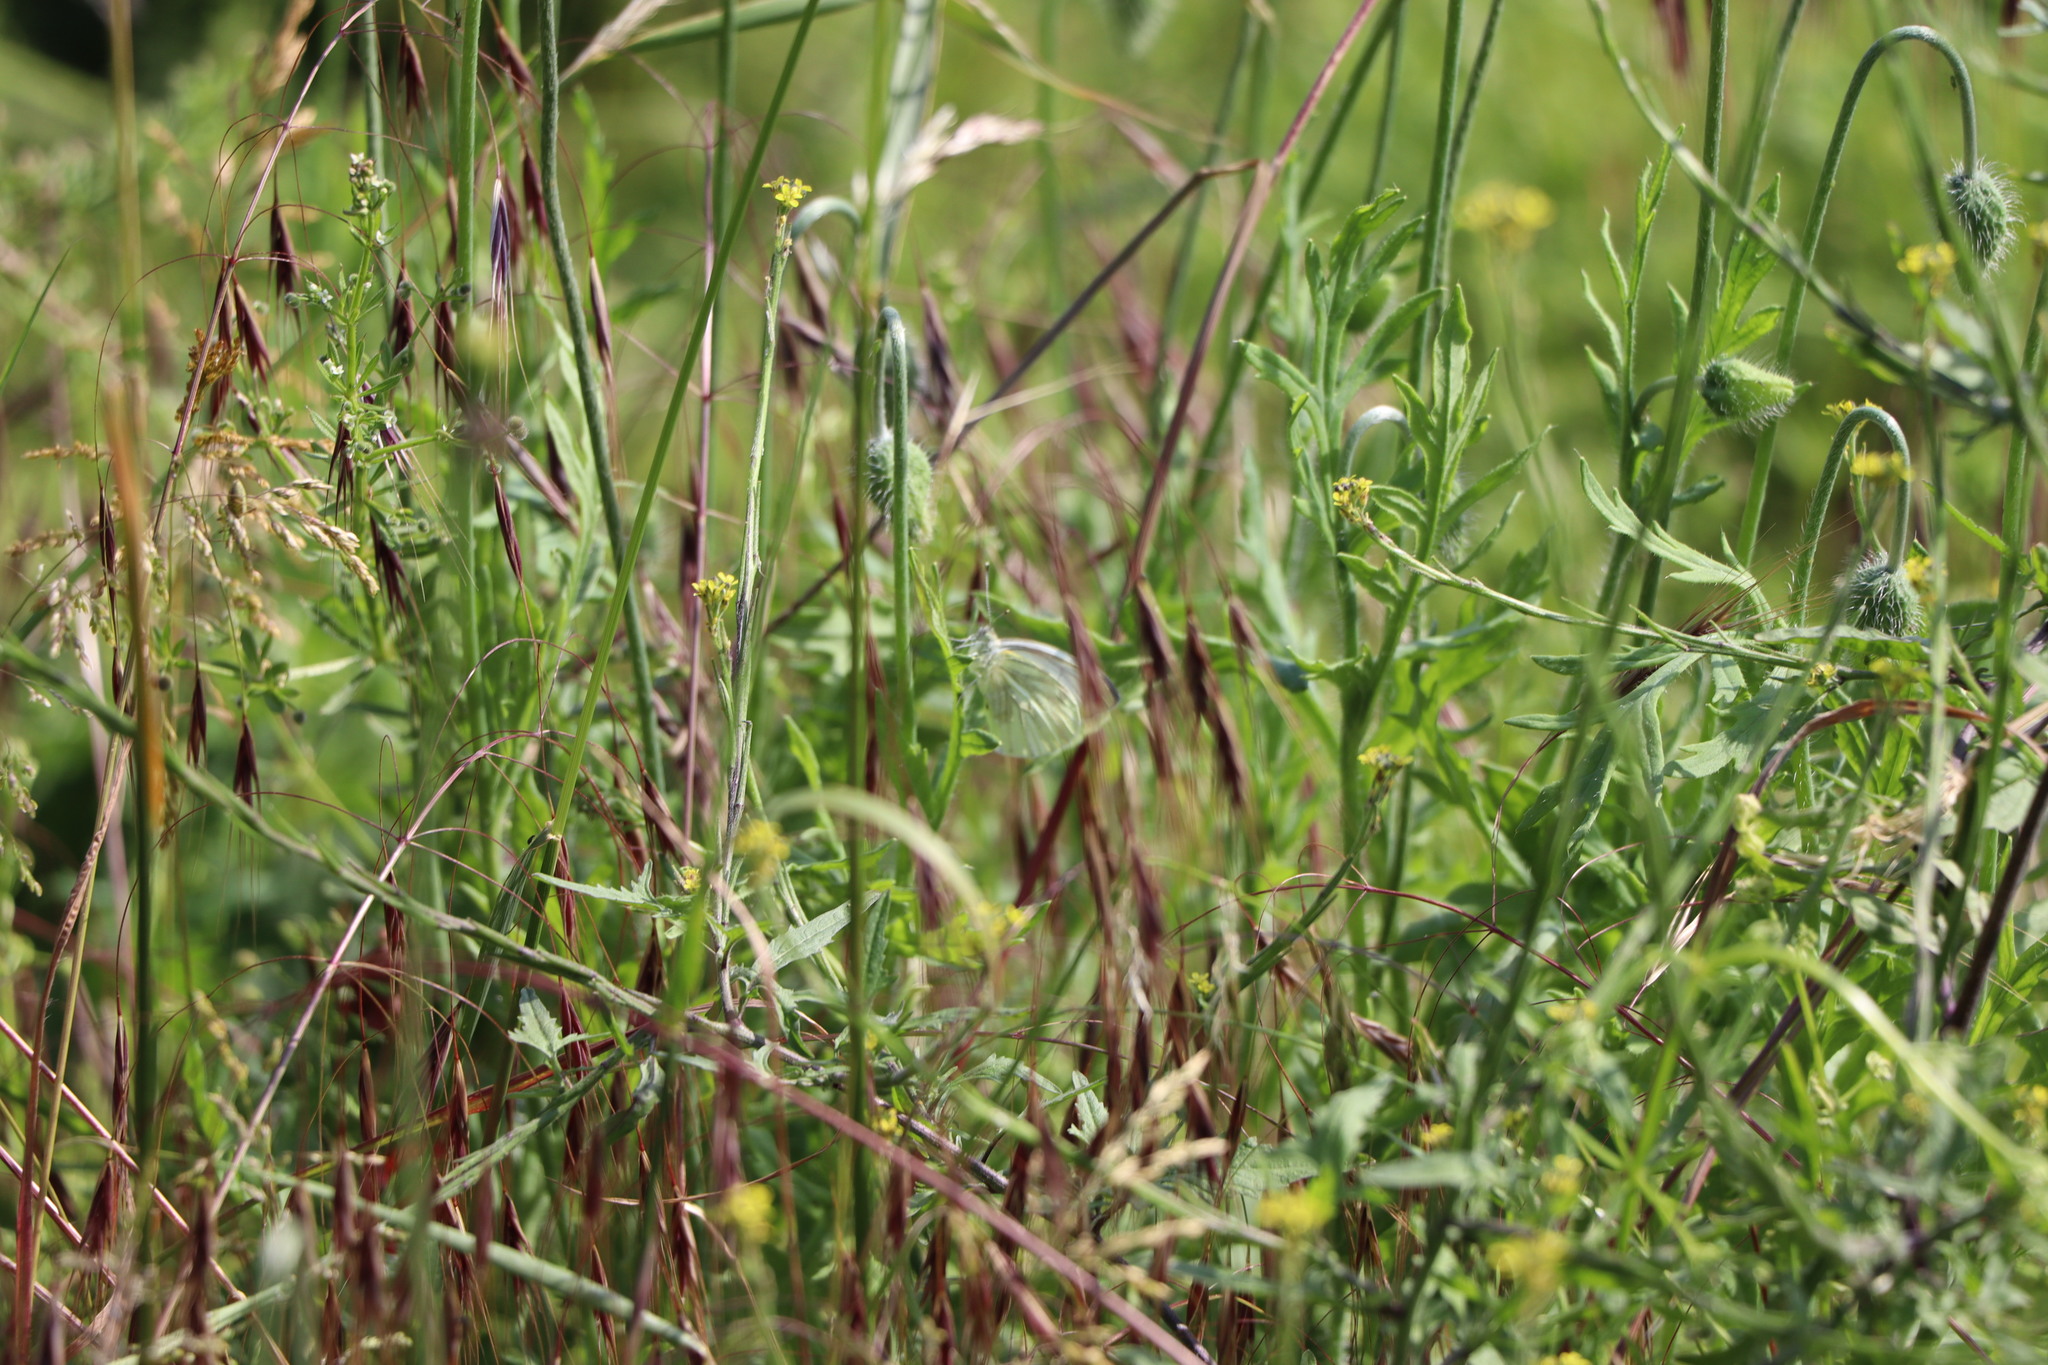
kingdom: Animalia
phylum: Arthropoda
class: Insecta
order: Lepidoptera
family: Pieridae
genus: Pieris
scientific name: Pieris napi
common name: Green-veined white
